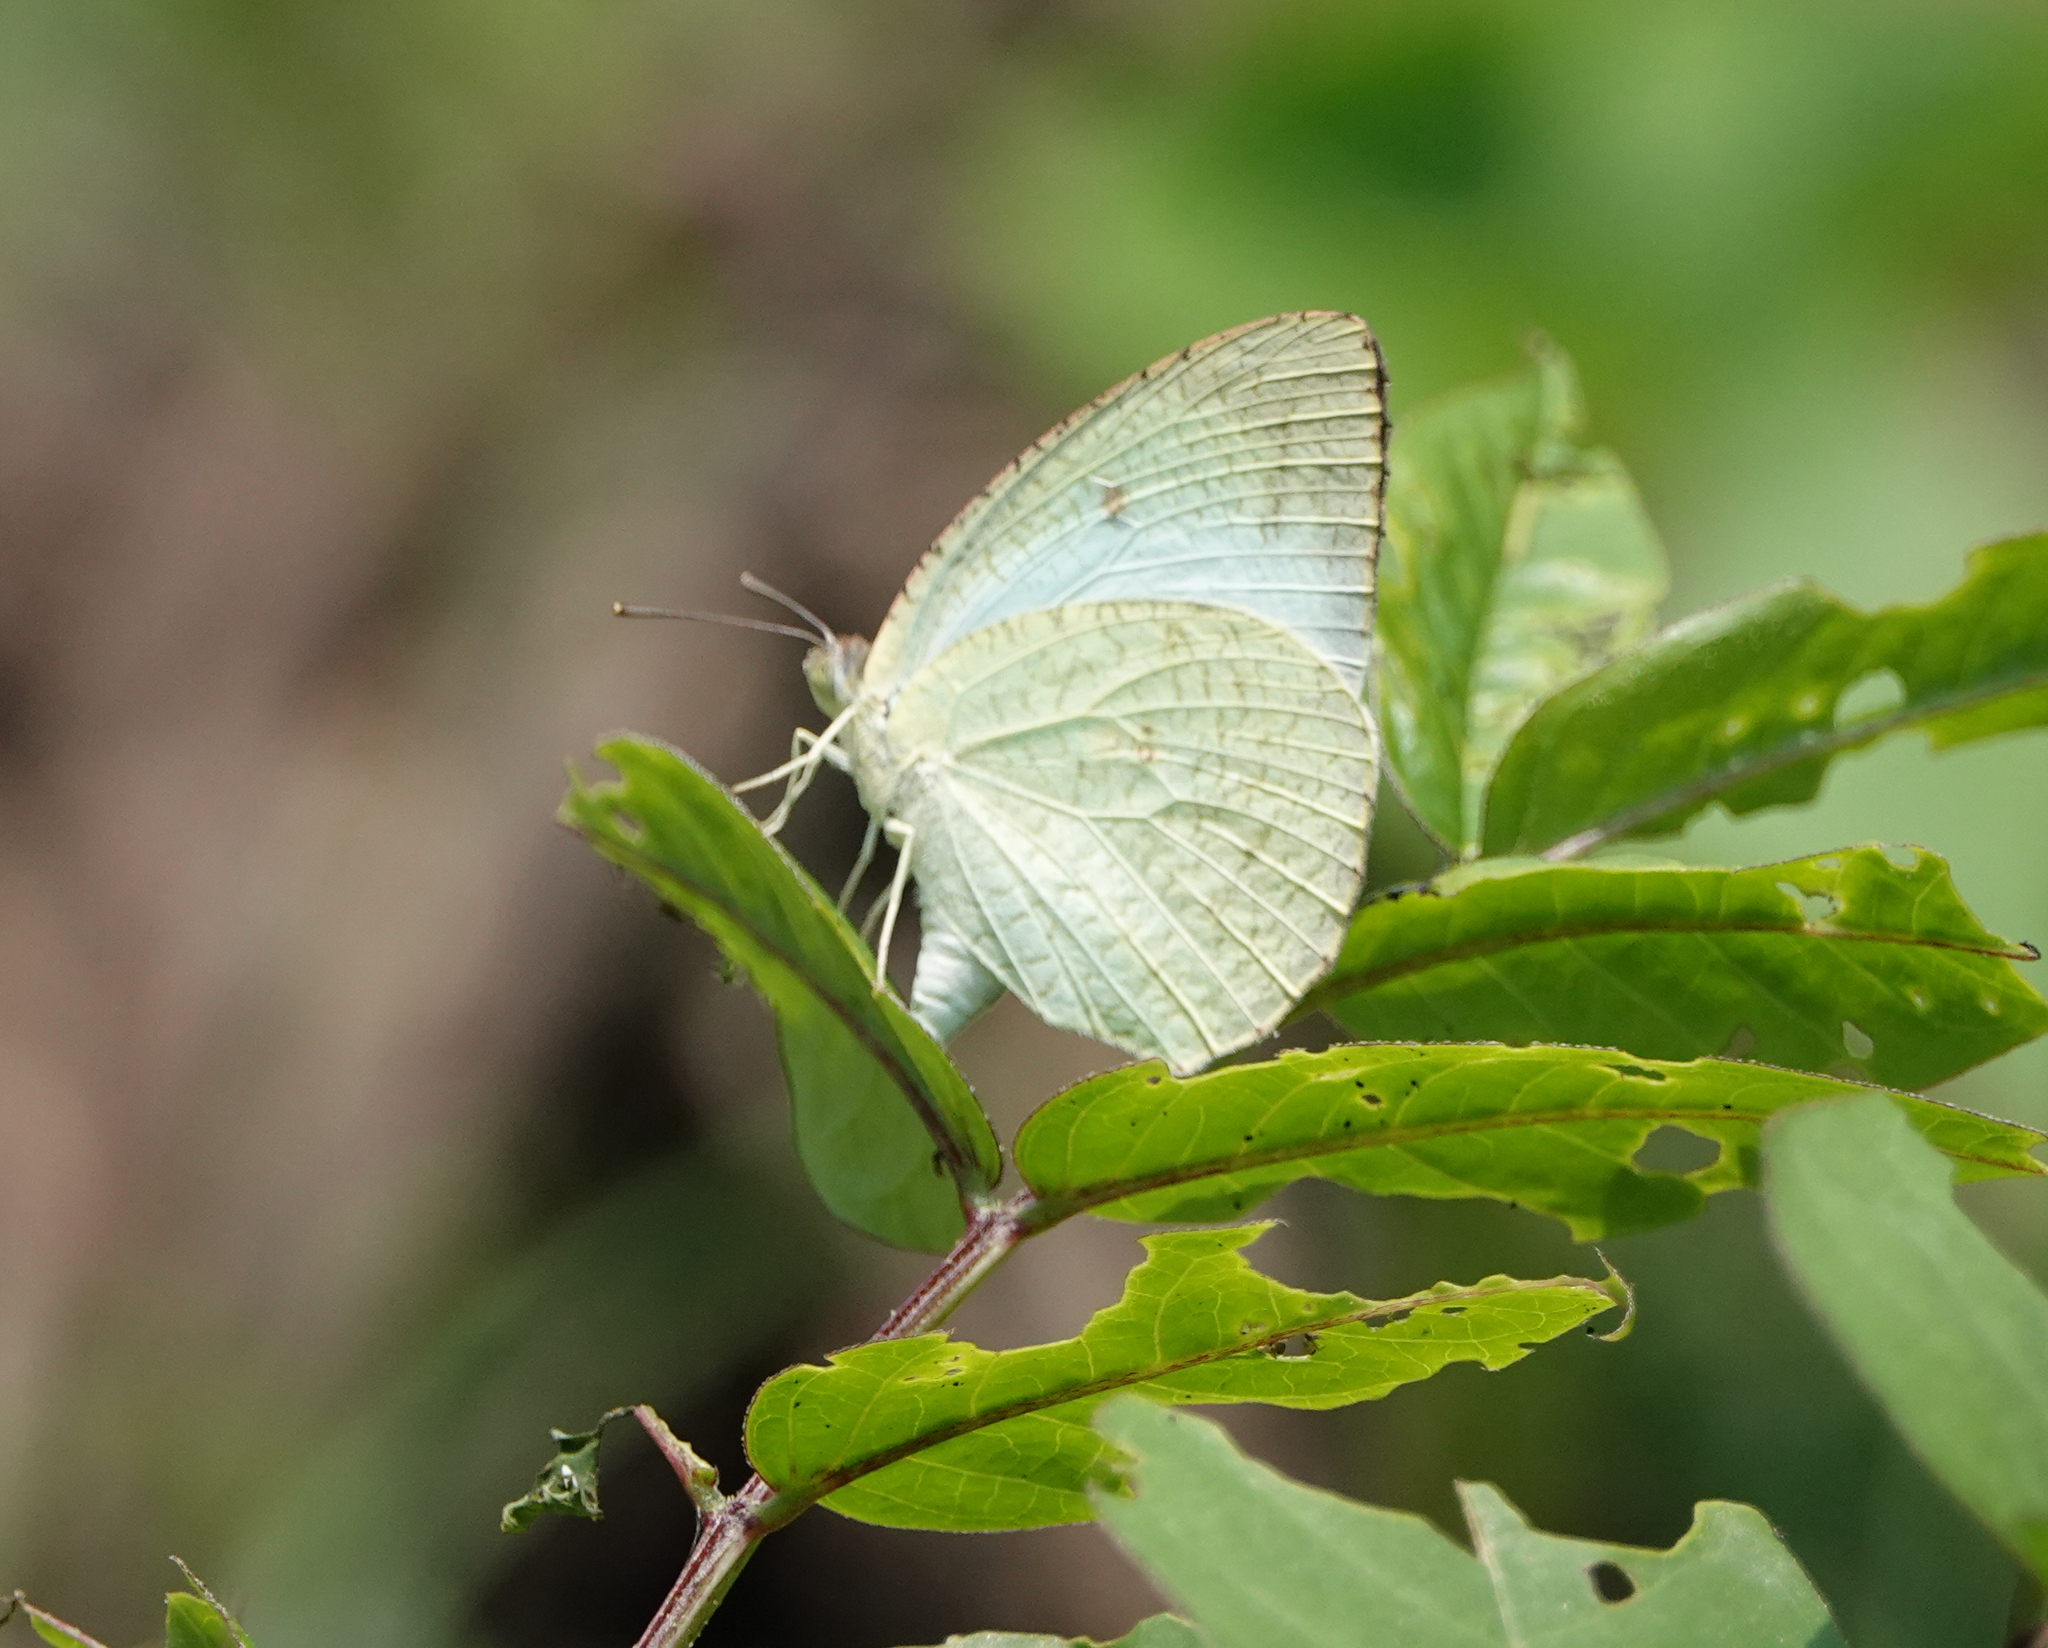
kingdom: Animalia
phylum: Arthropoda
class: Insecta
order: Lepidoptera
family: Pieridae
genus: Catopsilia
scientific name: Catopsilia pyranthe
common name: Mottled emigrant
